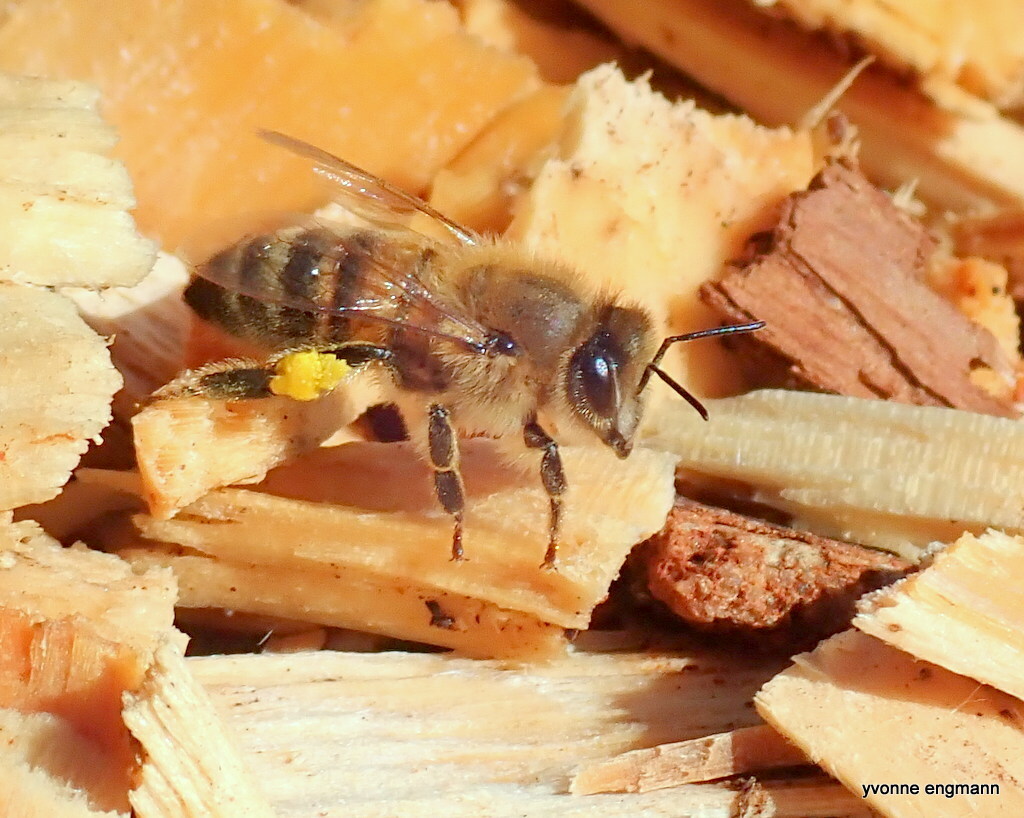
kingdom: Animalia
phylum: Arthropoda
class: Insecta
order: Hymenoptera
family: Apidae
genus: Apis
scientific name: Apis mellifera
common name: Honey bee
